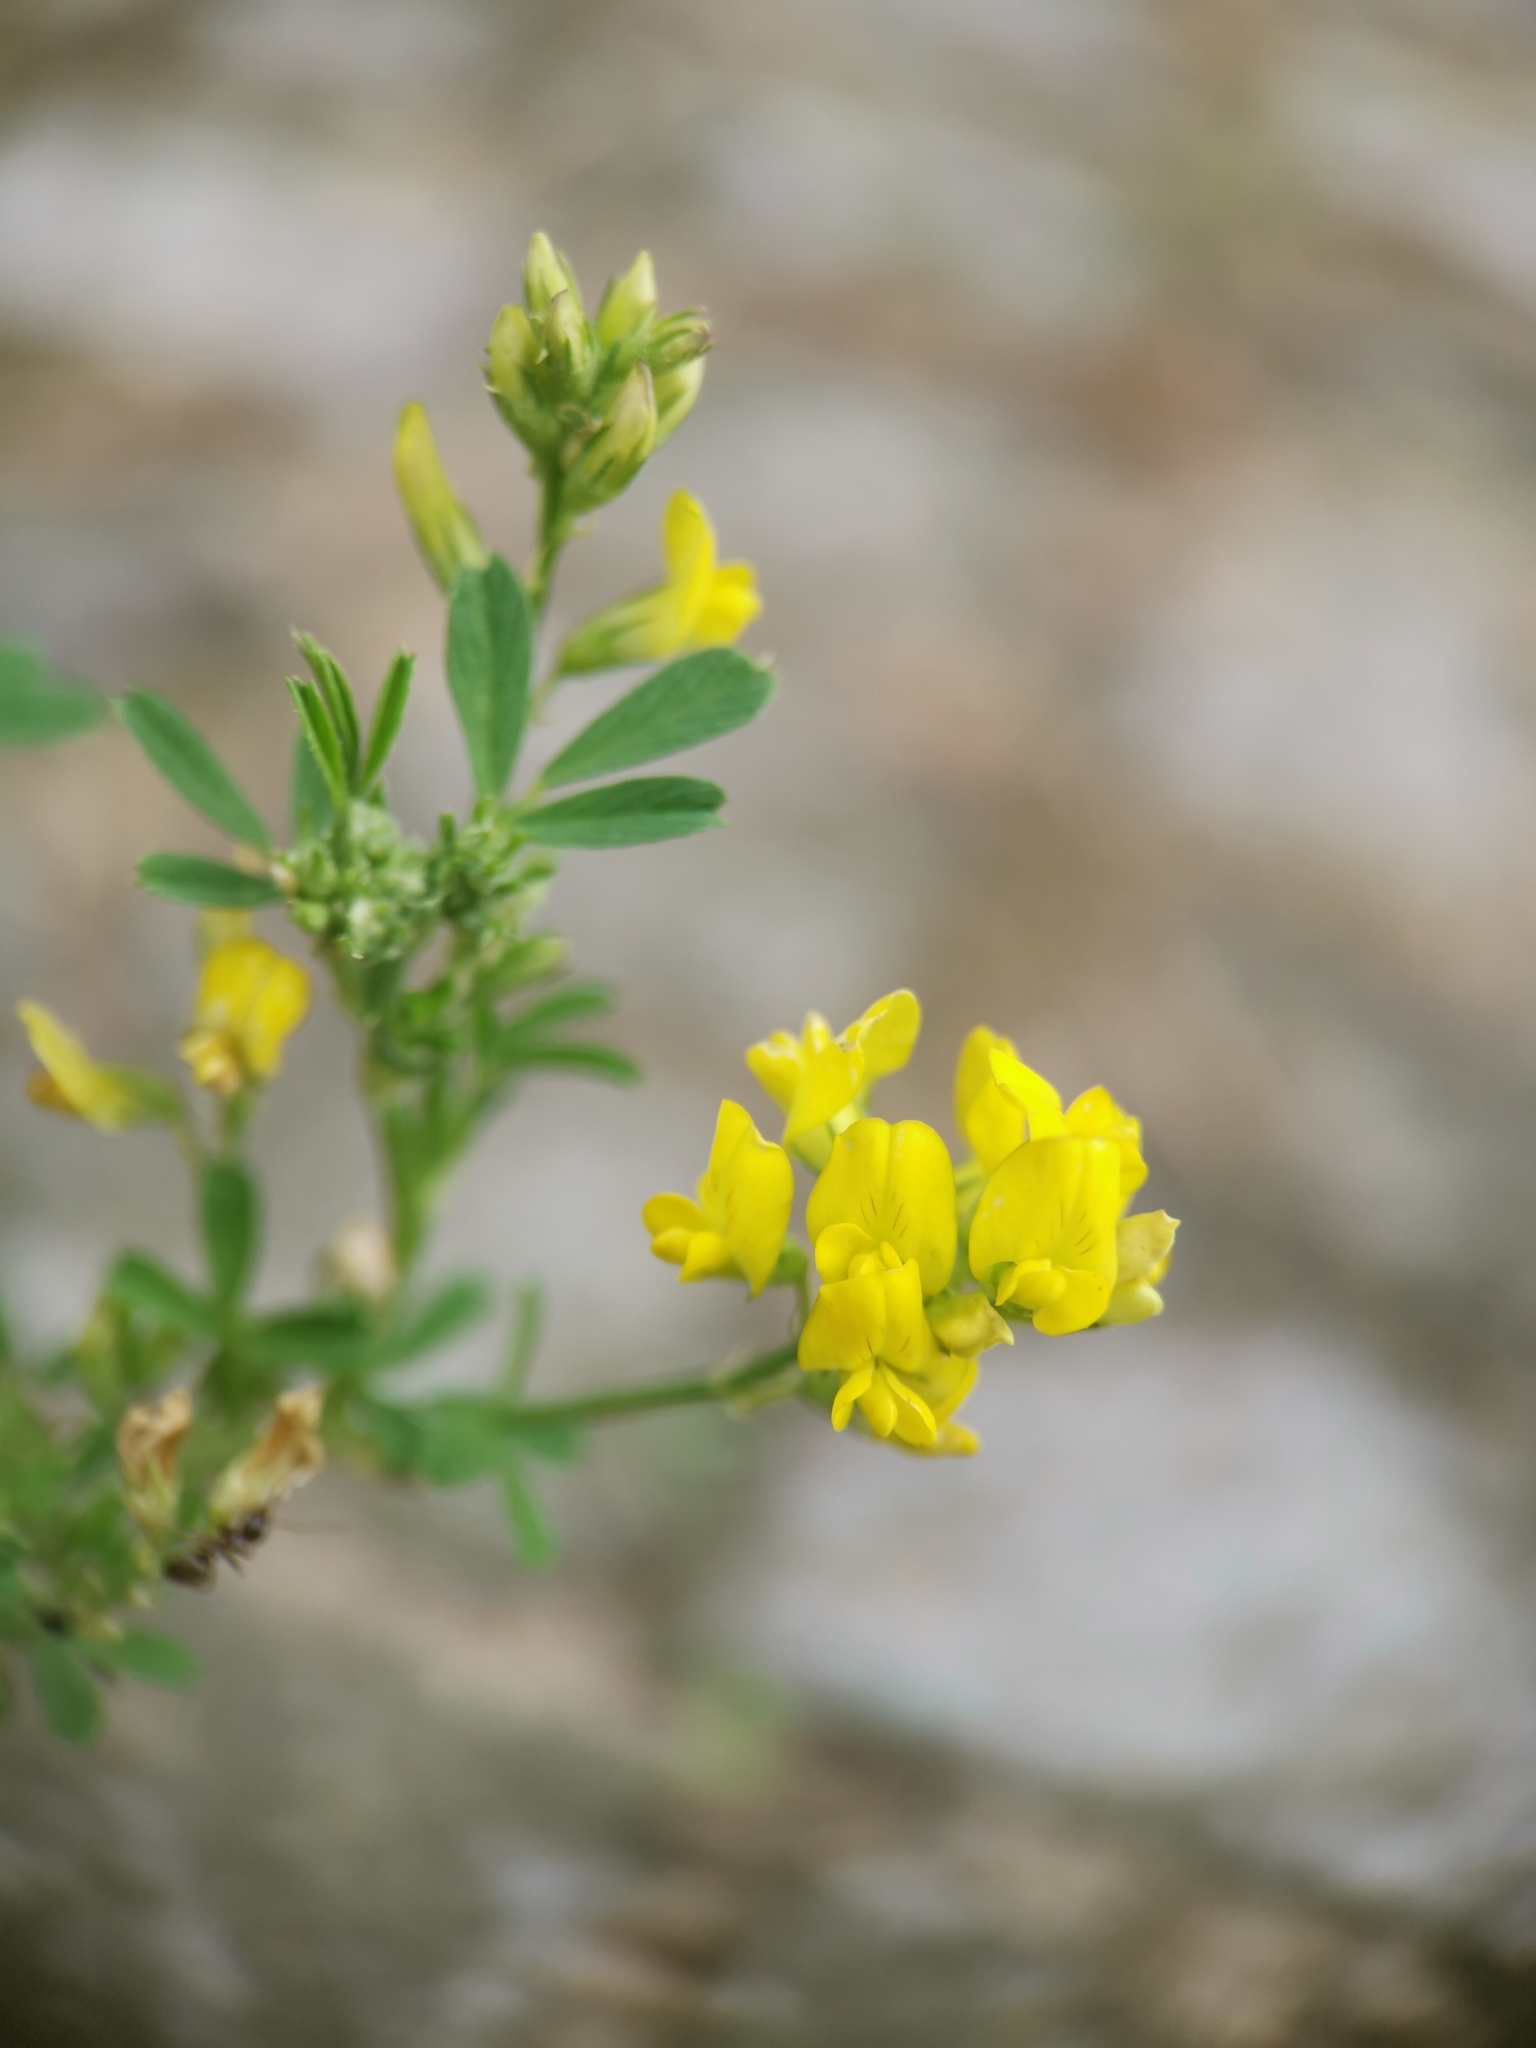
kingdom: Plantae
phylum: Tracheophyta
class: Magnoliopsida
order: Fabales
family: Fabaceae
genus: Medicago
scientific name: Medicago falcata
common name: Sickle medick
